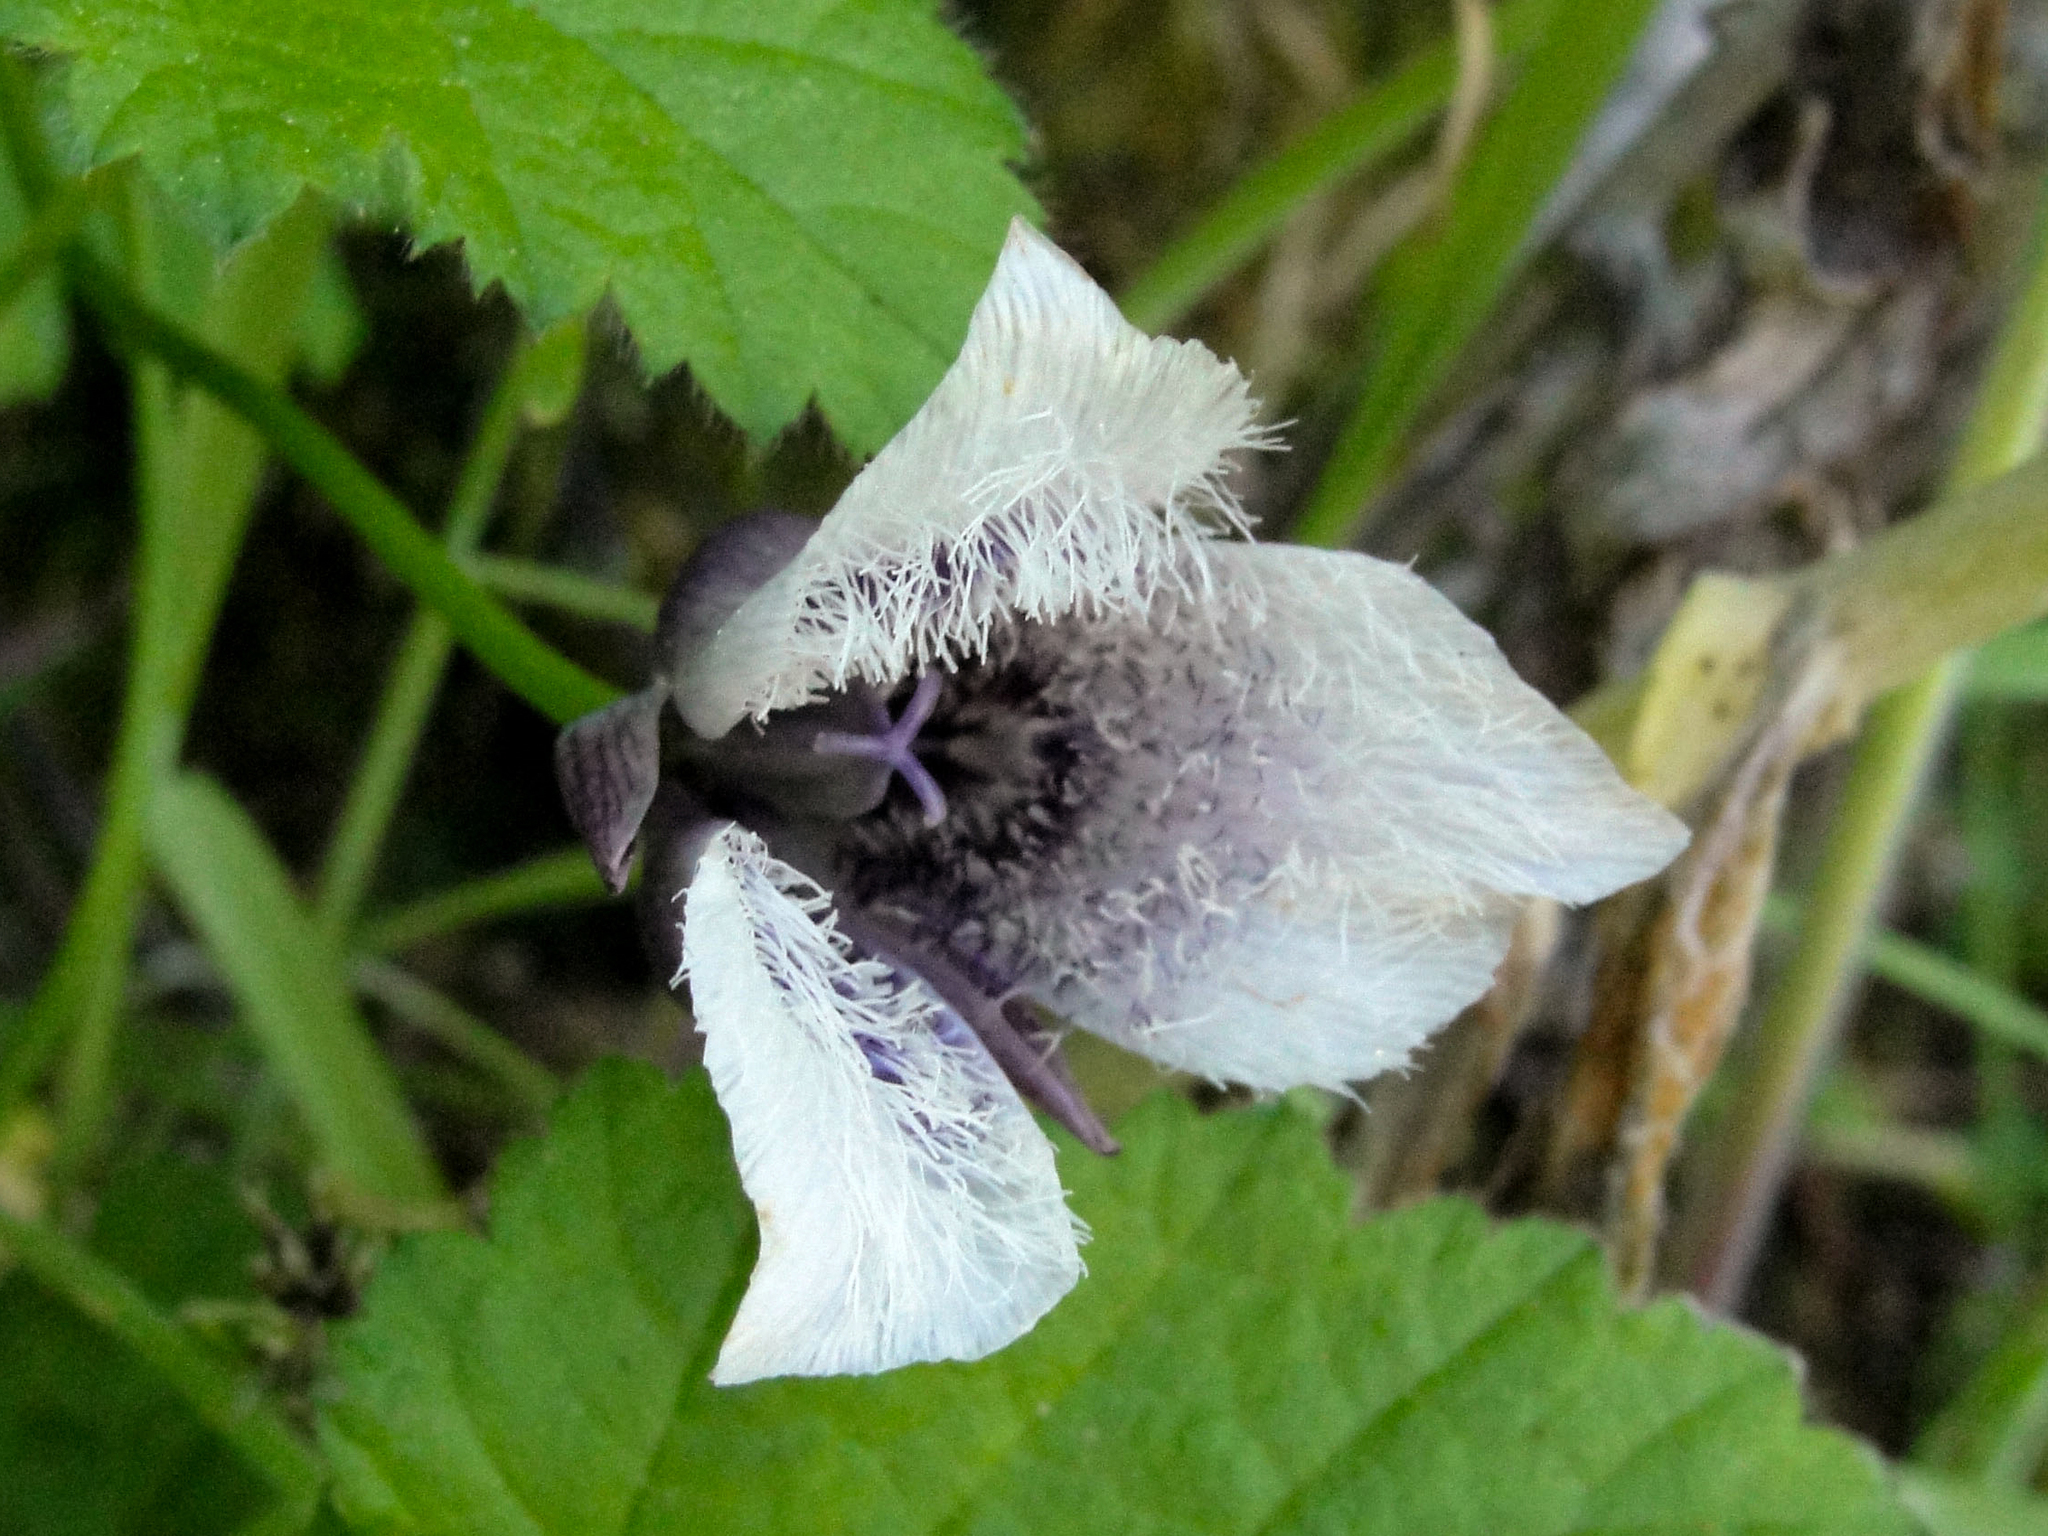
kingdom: Plantae
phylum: Tracheophyta
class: Liliopsida
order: Liliales
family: Liliaceae
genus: Calochortus
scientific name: Calochortus tolmiei
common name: Pussy-ears
